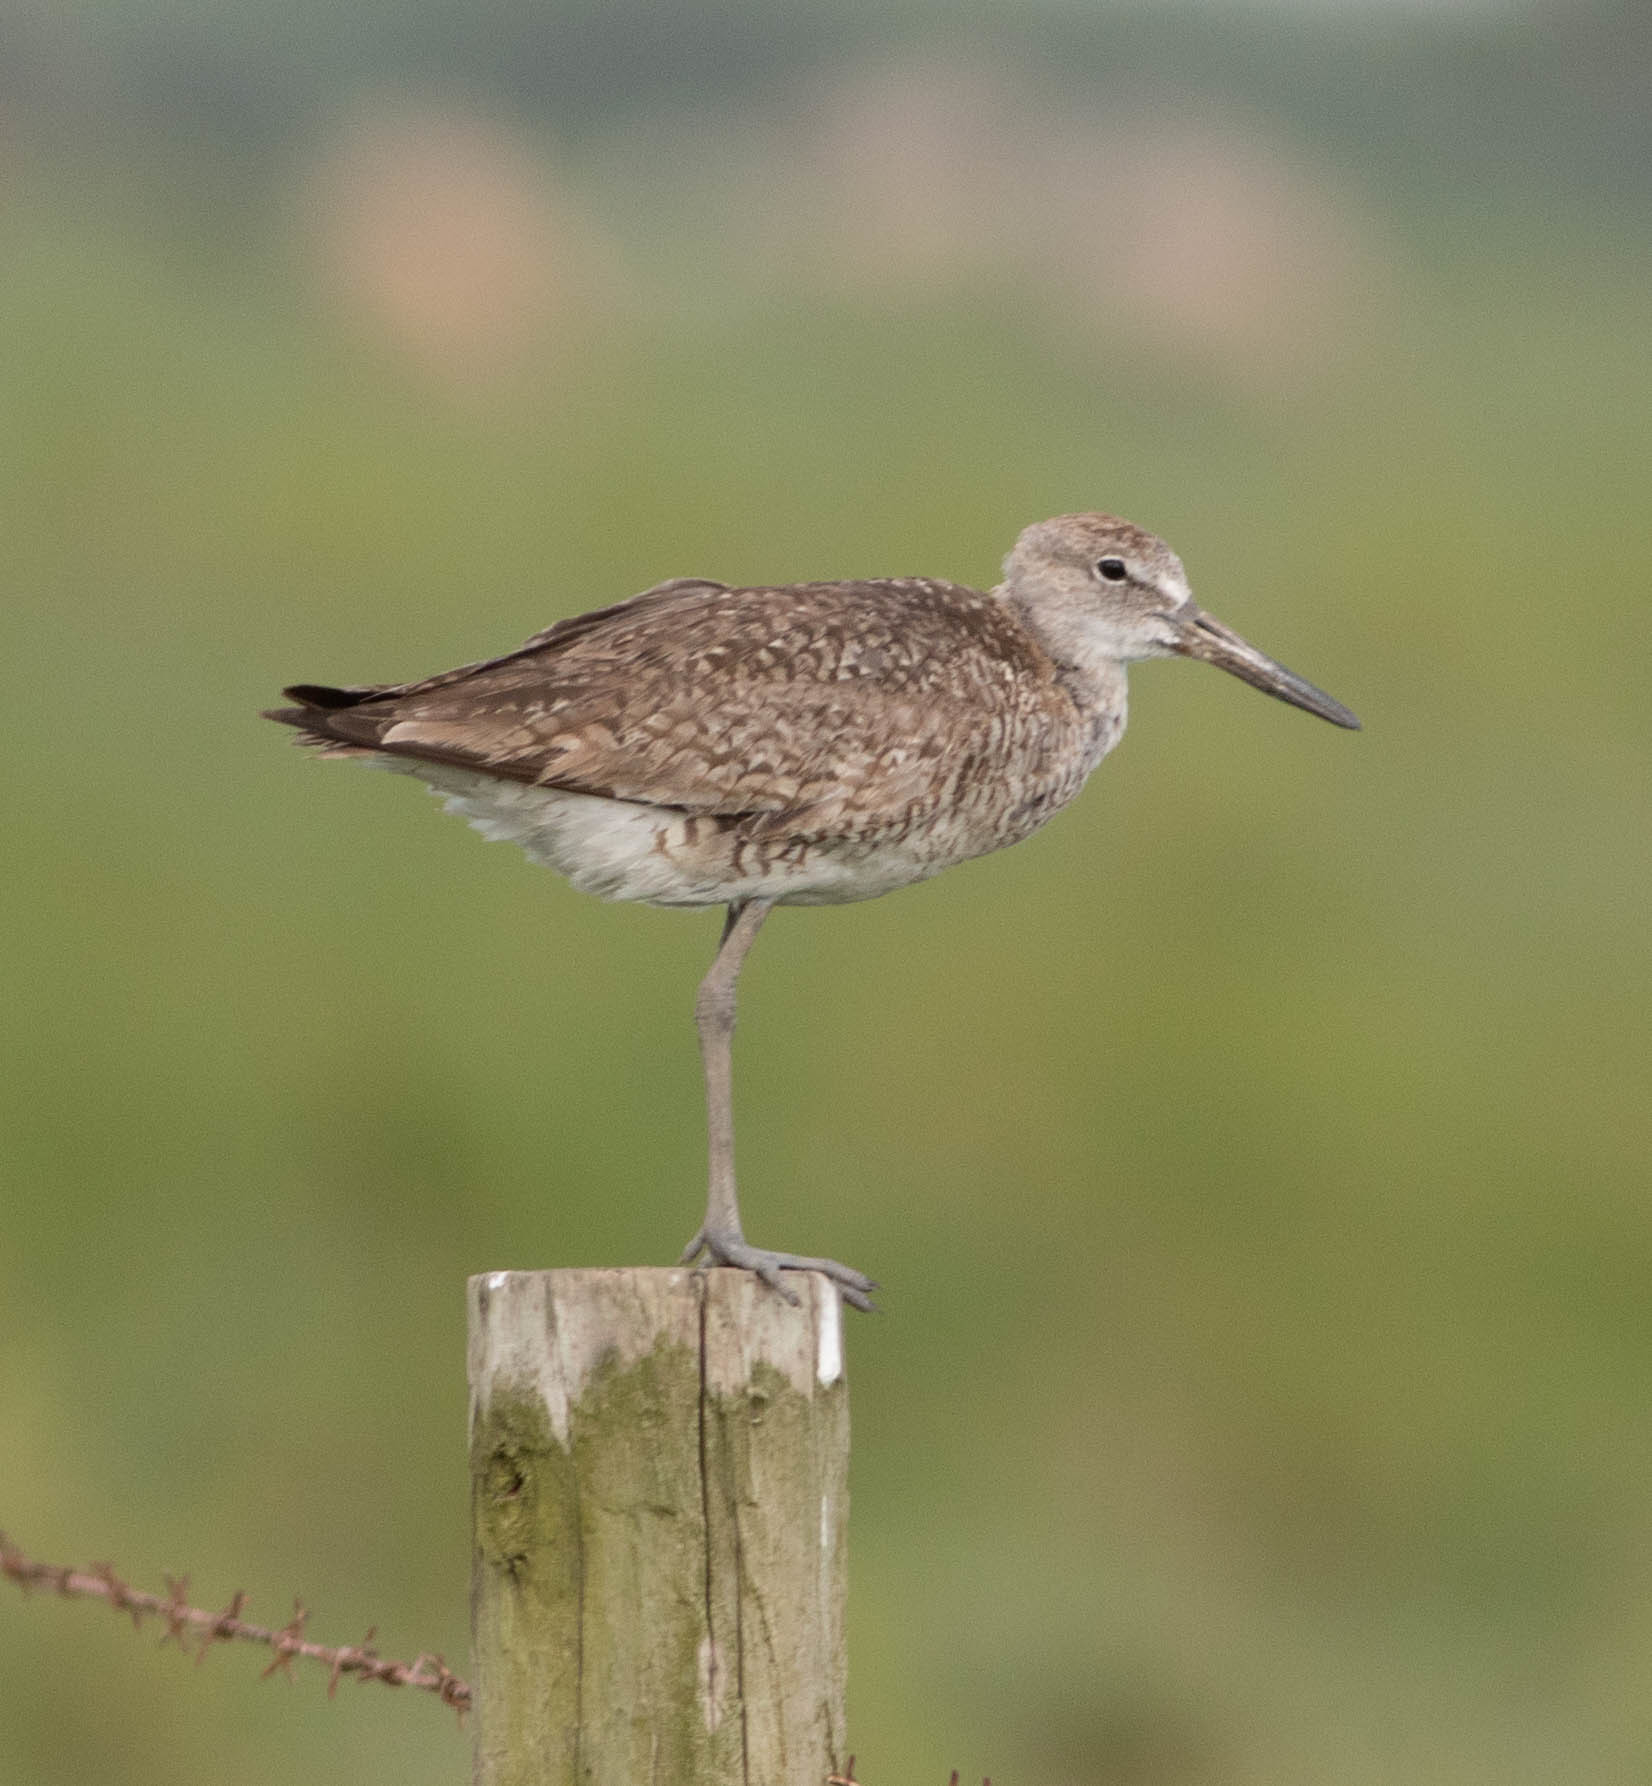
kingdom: Animalia
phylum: Chordata
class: Aves
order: Charadriiformes
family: Scolopacidae
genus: Tringa
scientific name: Tringa semipalmata
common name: Willet
